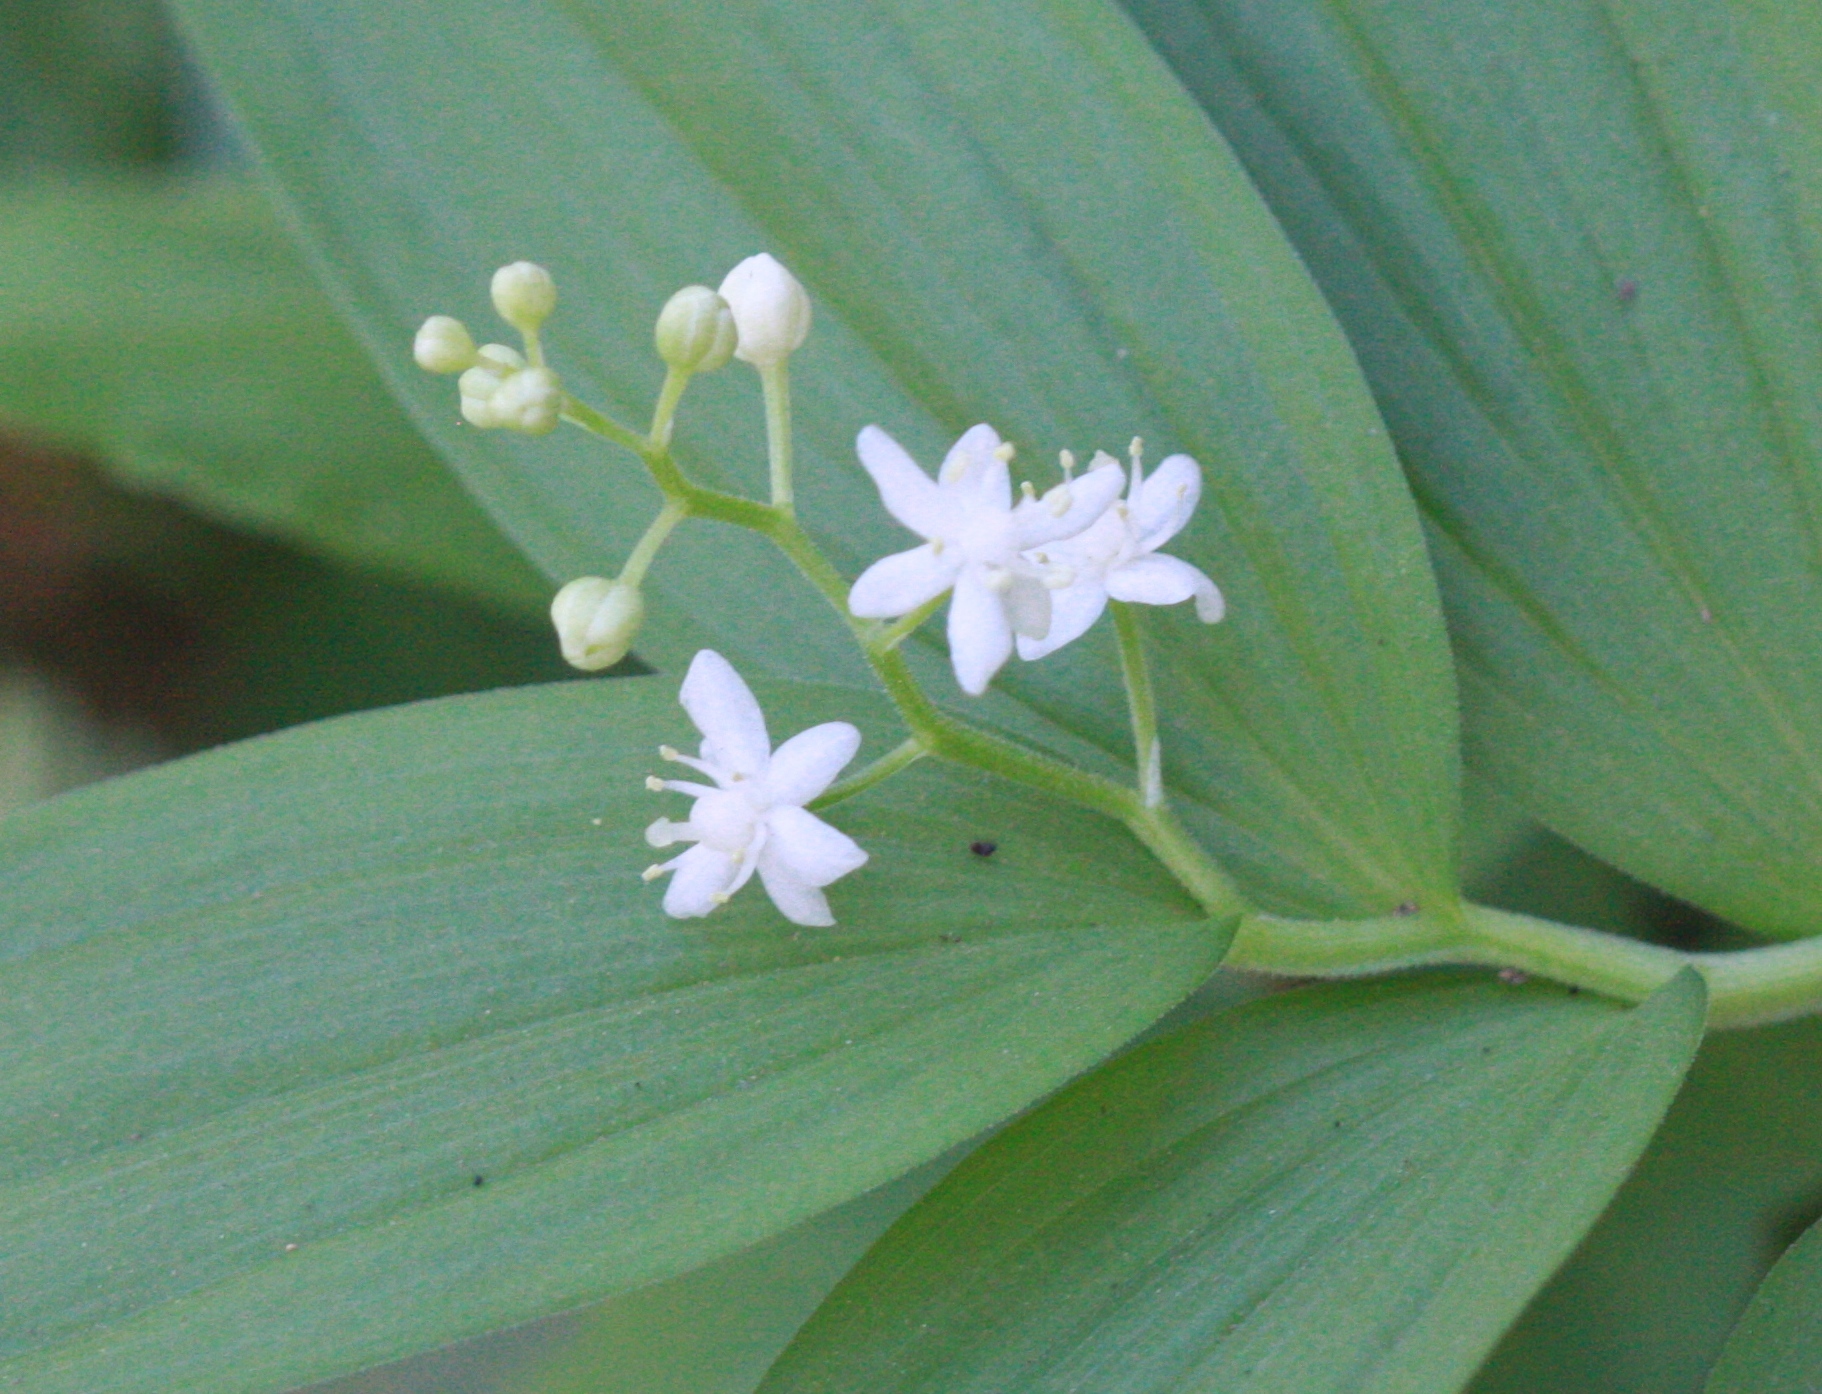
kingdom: Plantae
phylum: Tracheophyta
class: Liliopsida
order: Asparagales
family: Asparagaceae
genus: Maianthemum
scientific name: Maianthemum stellatum
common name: Little false solomon's seal
